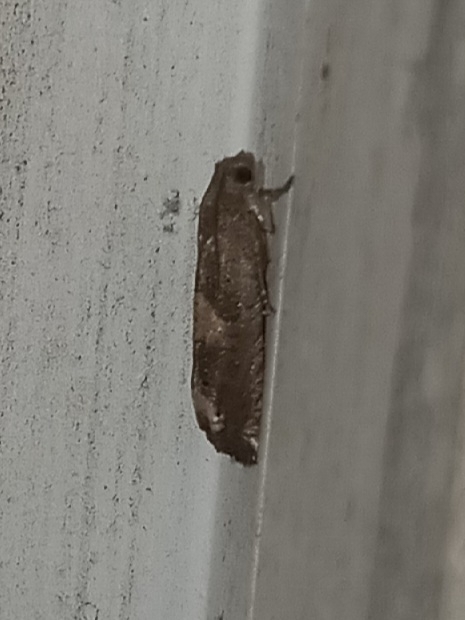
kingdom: Animalia
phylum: Arthropoda
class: Insecta
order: Lepidoptera
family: Tortricidae
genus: Epiblema
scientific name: Epiblema strenuana
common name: Ragweed borer moth
